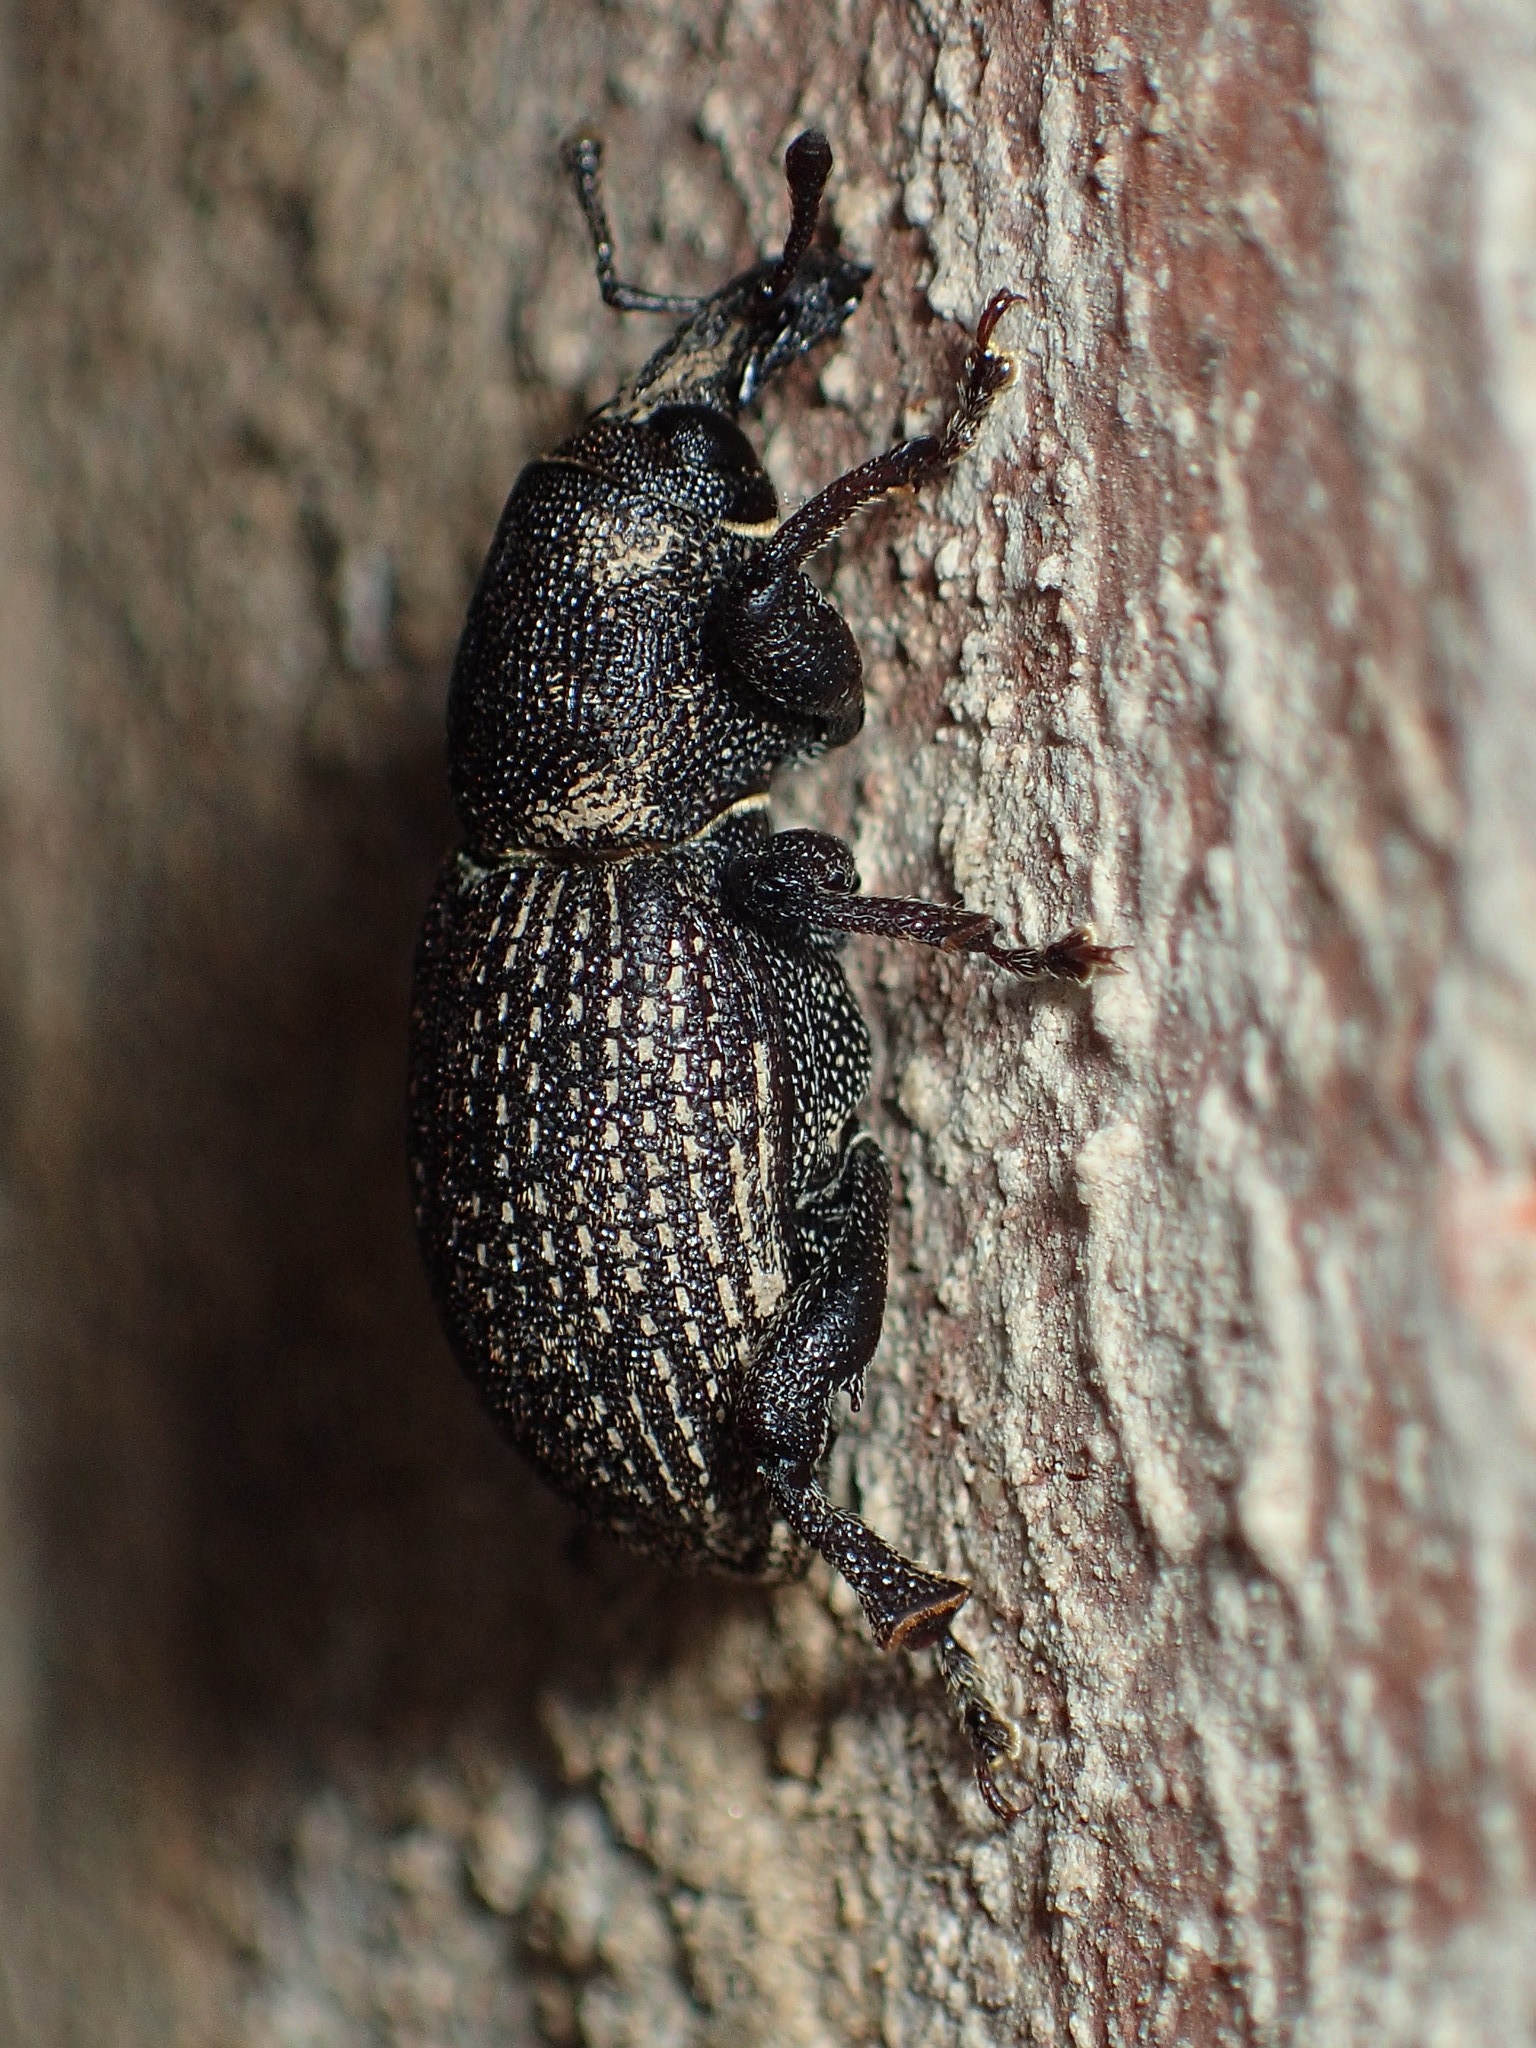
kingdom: Animalia
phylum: Arthropoda
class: Insecta
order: Coleoptera
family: Curculionidae
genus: Pachylobius
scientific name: Pachylobius picivorus
